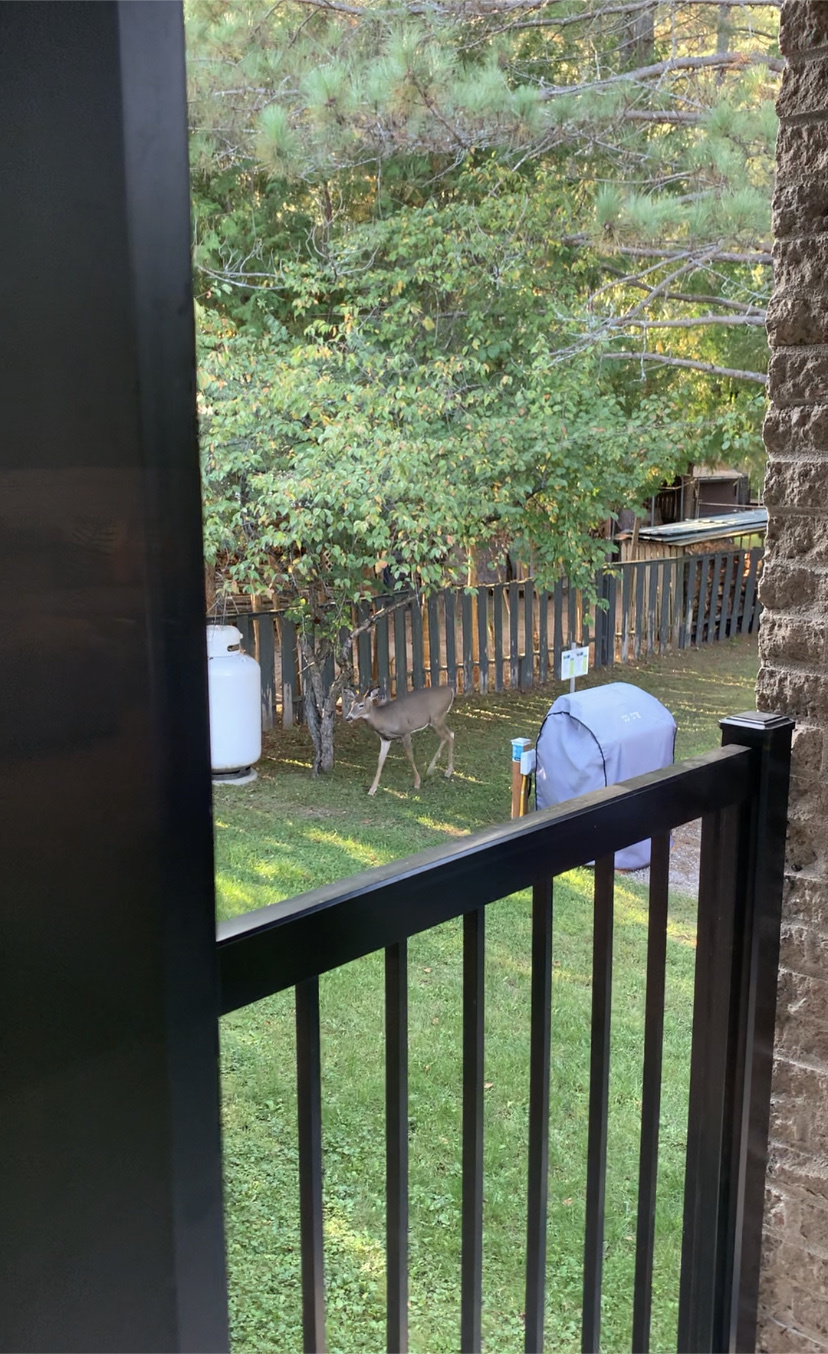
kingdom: Animalia
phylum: Chordata
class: Mammalia
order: Artiodactyla
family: Cervidae
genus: Odocoileus
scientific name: Odocoileus virginianus
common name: White-tailed deer
